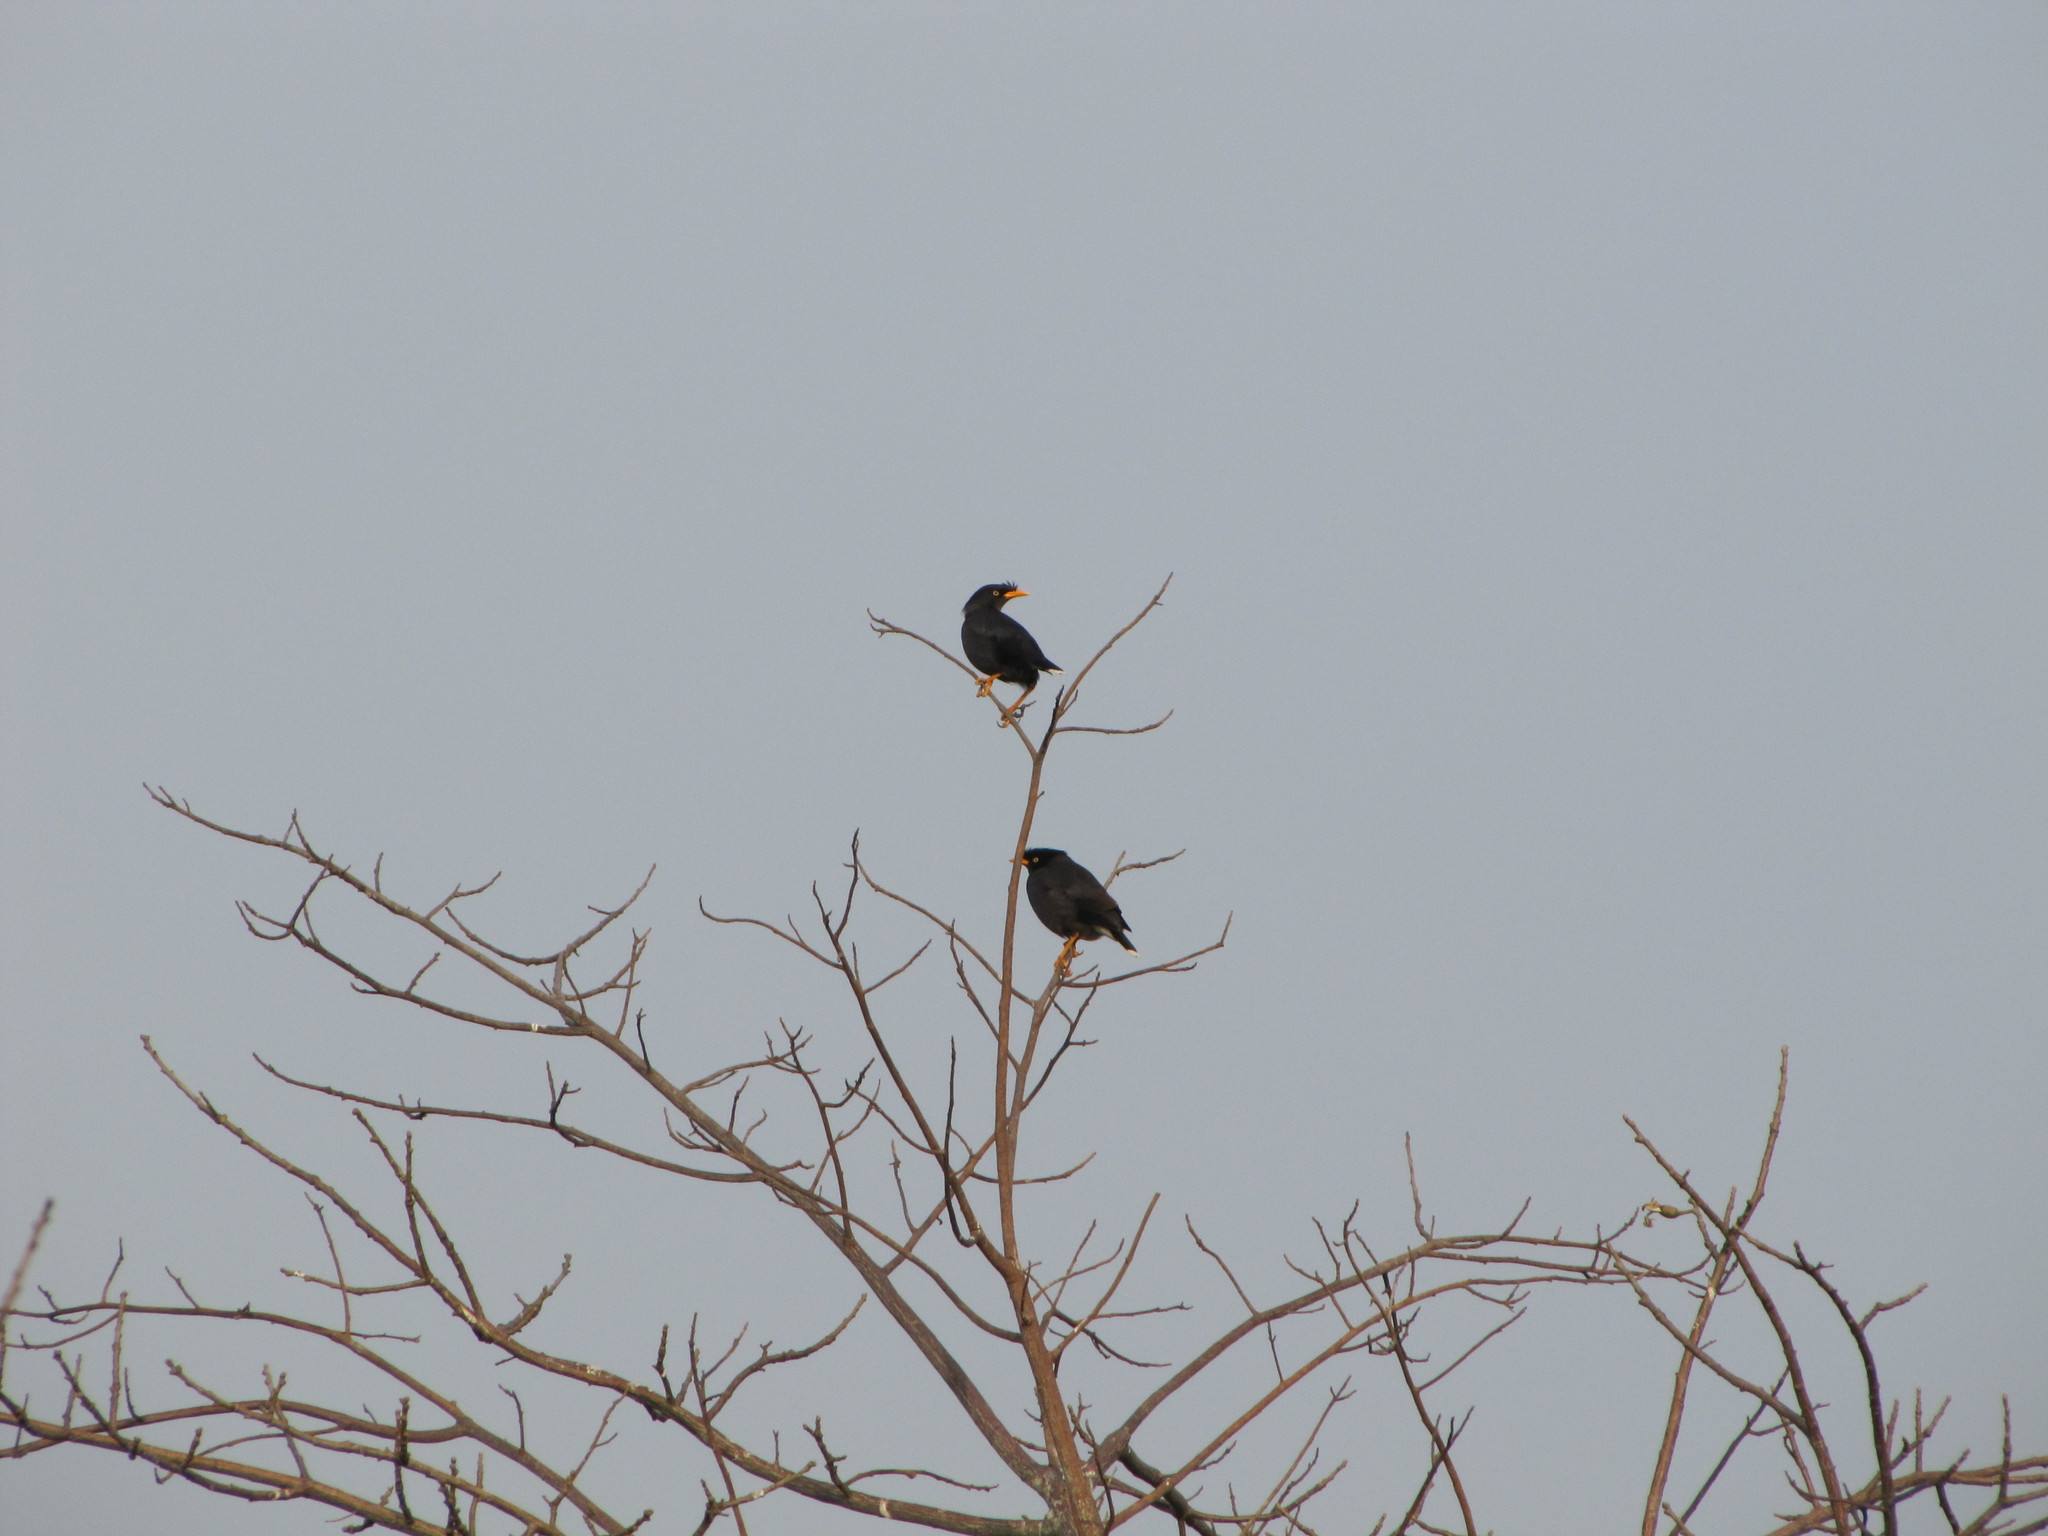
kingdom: Animalia
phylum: Chordata
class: Aves
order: Passeriformes
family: Sturnidae
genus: Acridotheres
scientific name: Acridotheres javanicus
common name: Javan myna
